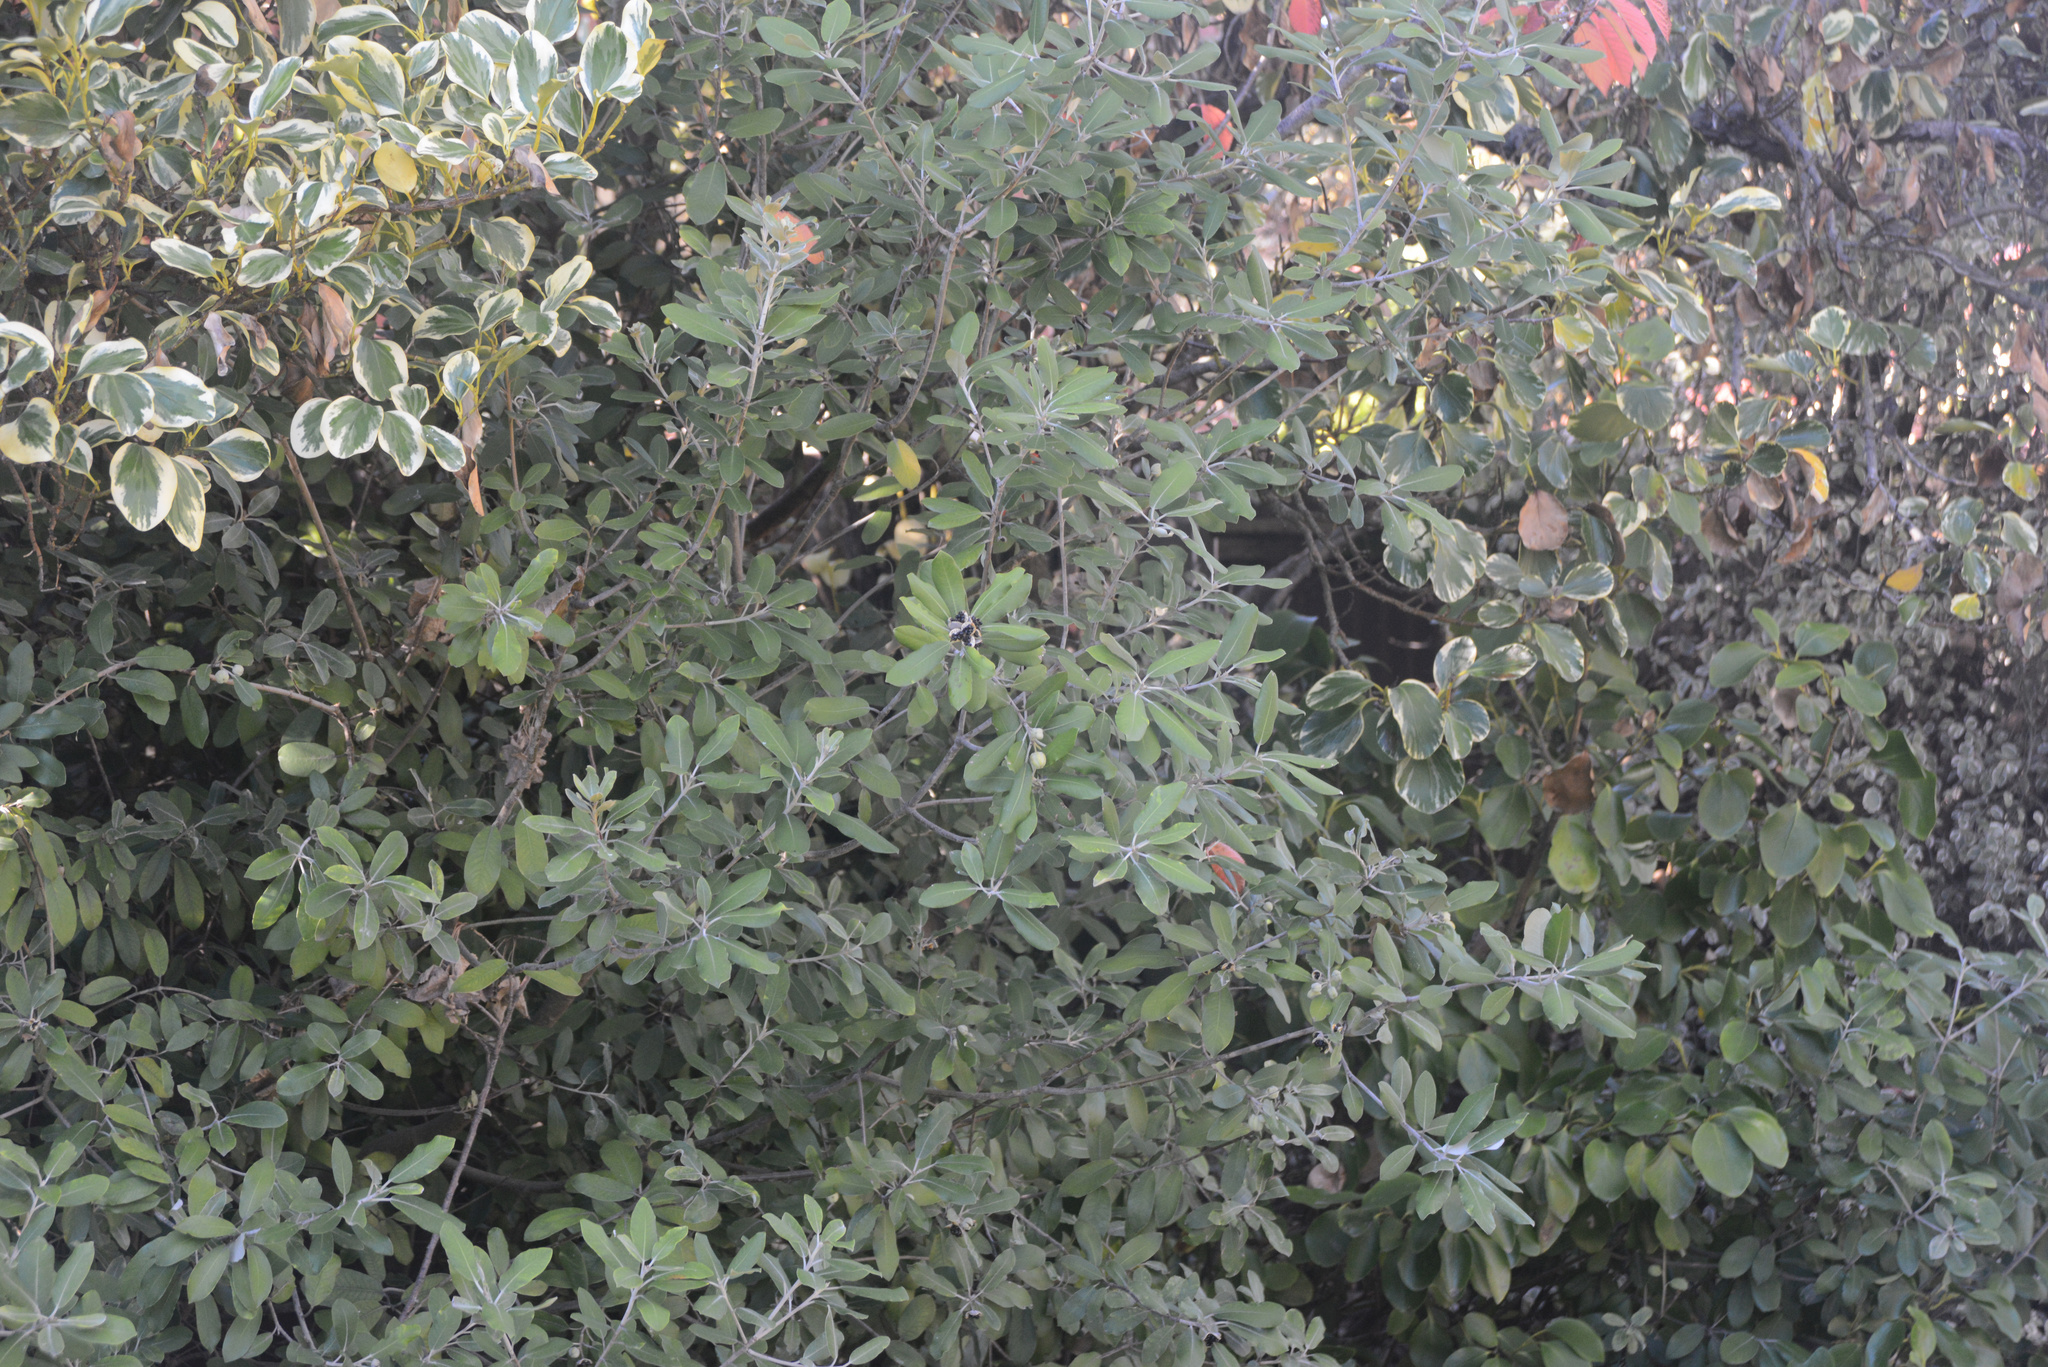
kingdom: Plantae
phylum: Tracheophyta
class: Magnoliopsida
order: Apiales
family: Pittosporaceae
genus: Pittosporum
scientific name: Pittosporum ralphii
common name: Ralph's desertwillow
